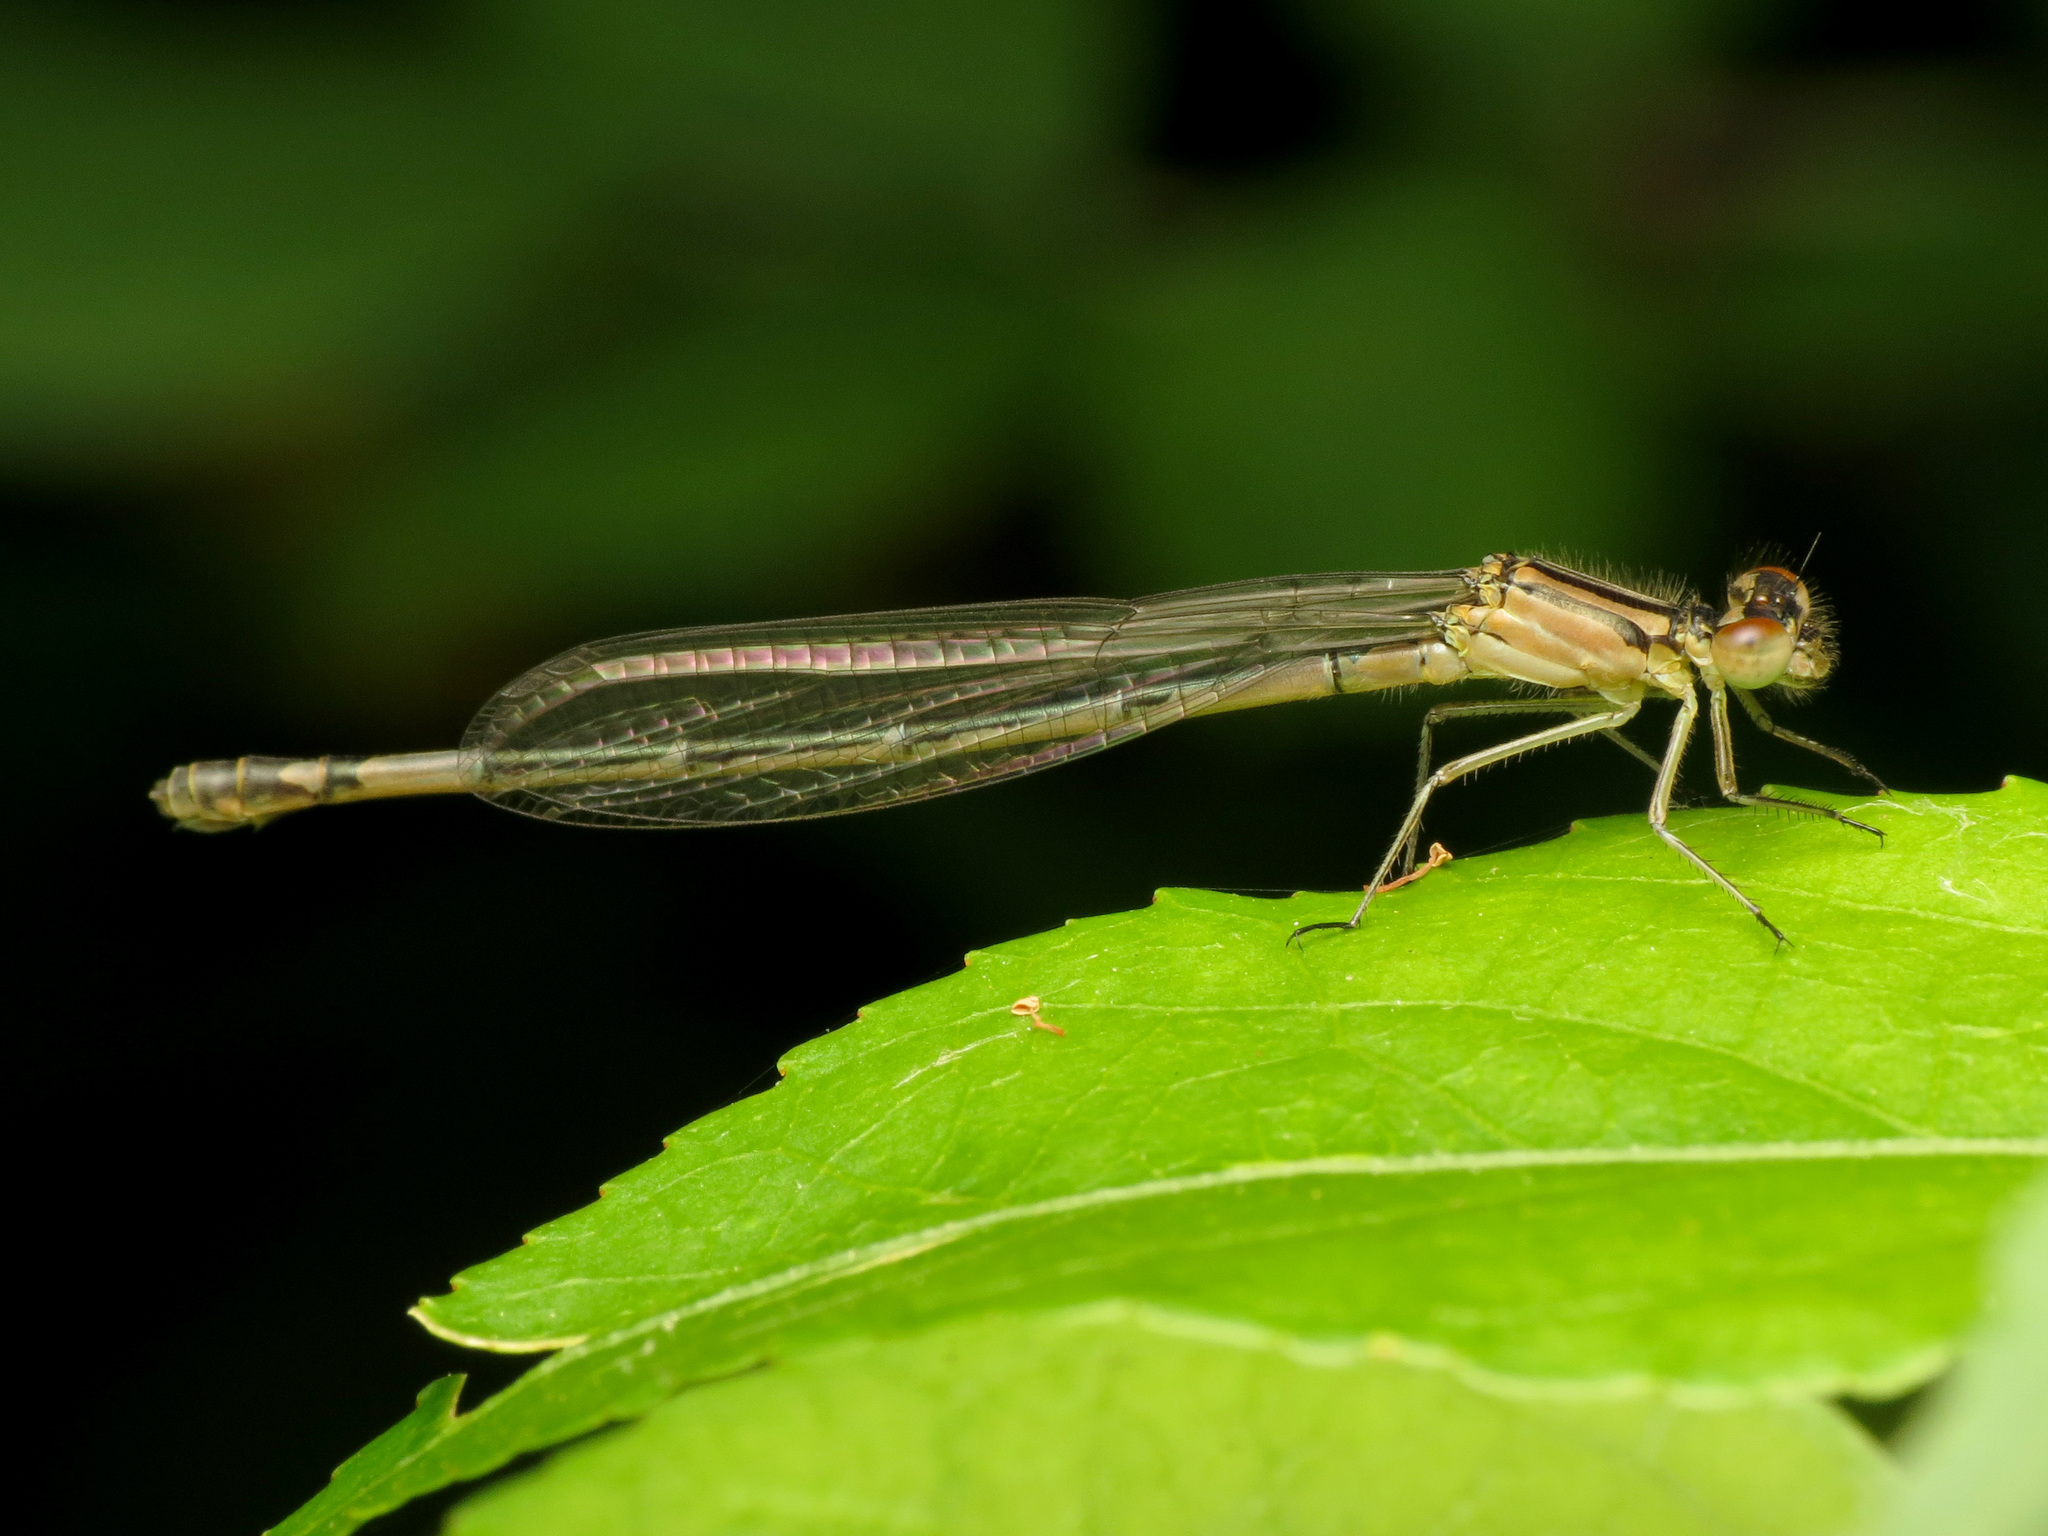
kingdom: Animalia
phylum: Arthropoda
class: Insecta
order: Odonata
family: Coenagrionidae
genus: Enallagma
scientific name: Enallagma aspersum
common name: Azure bluet
